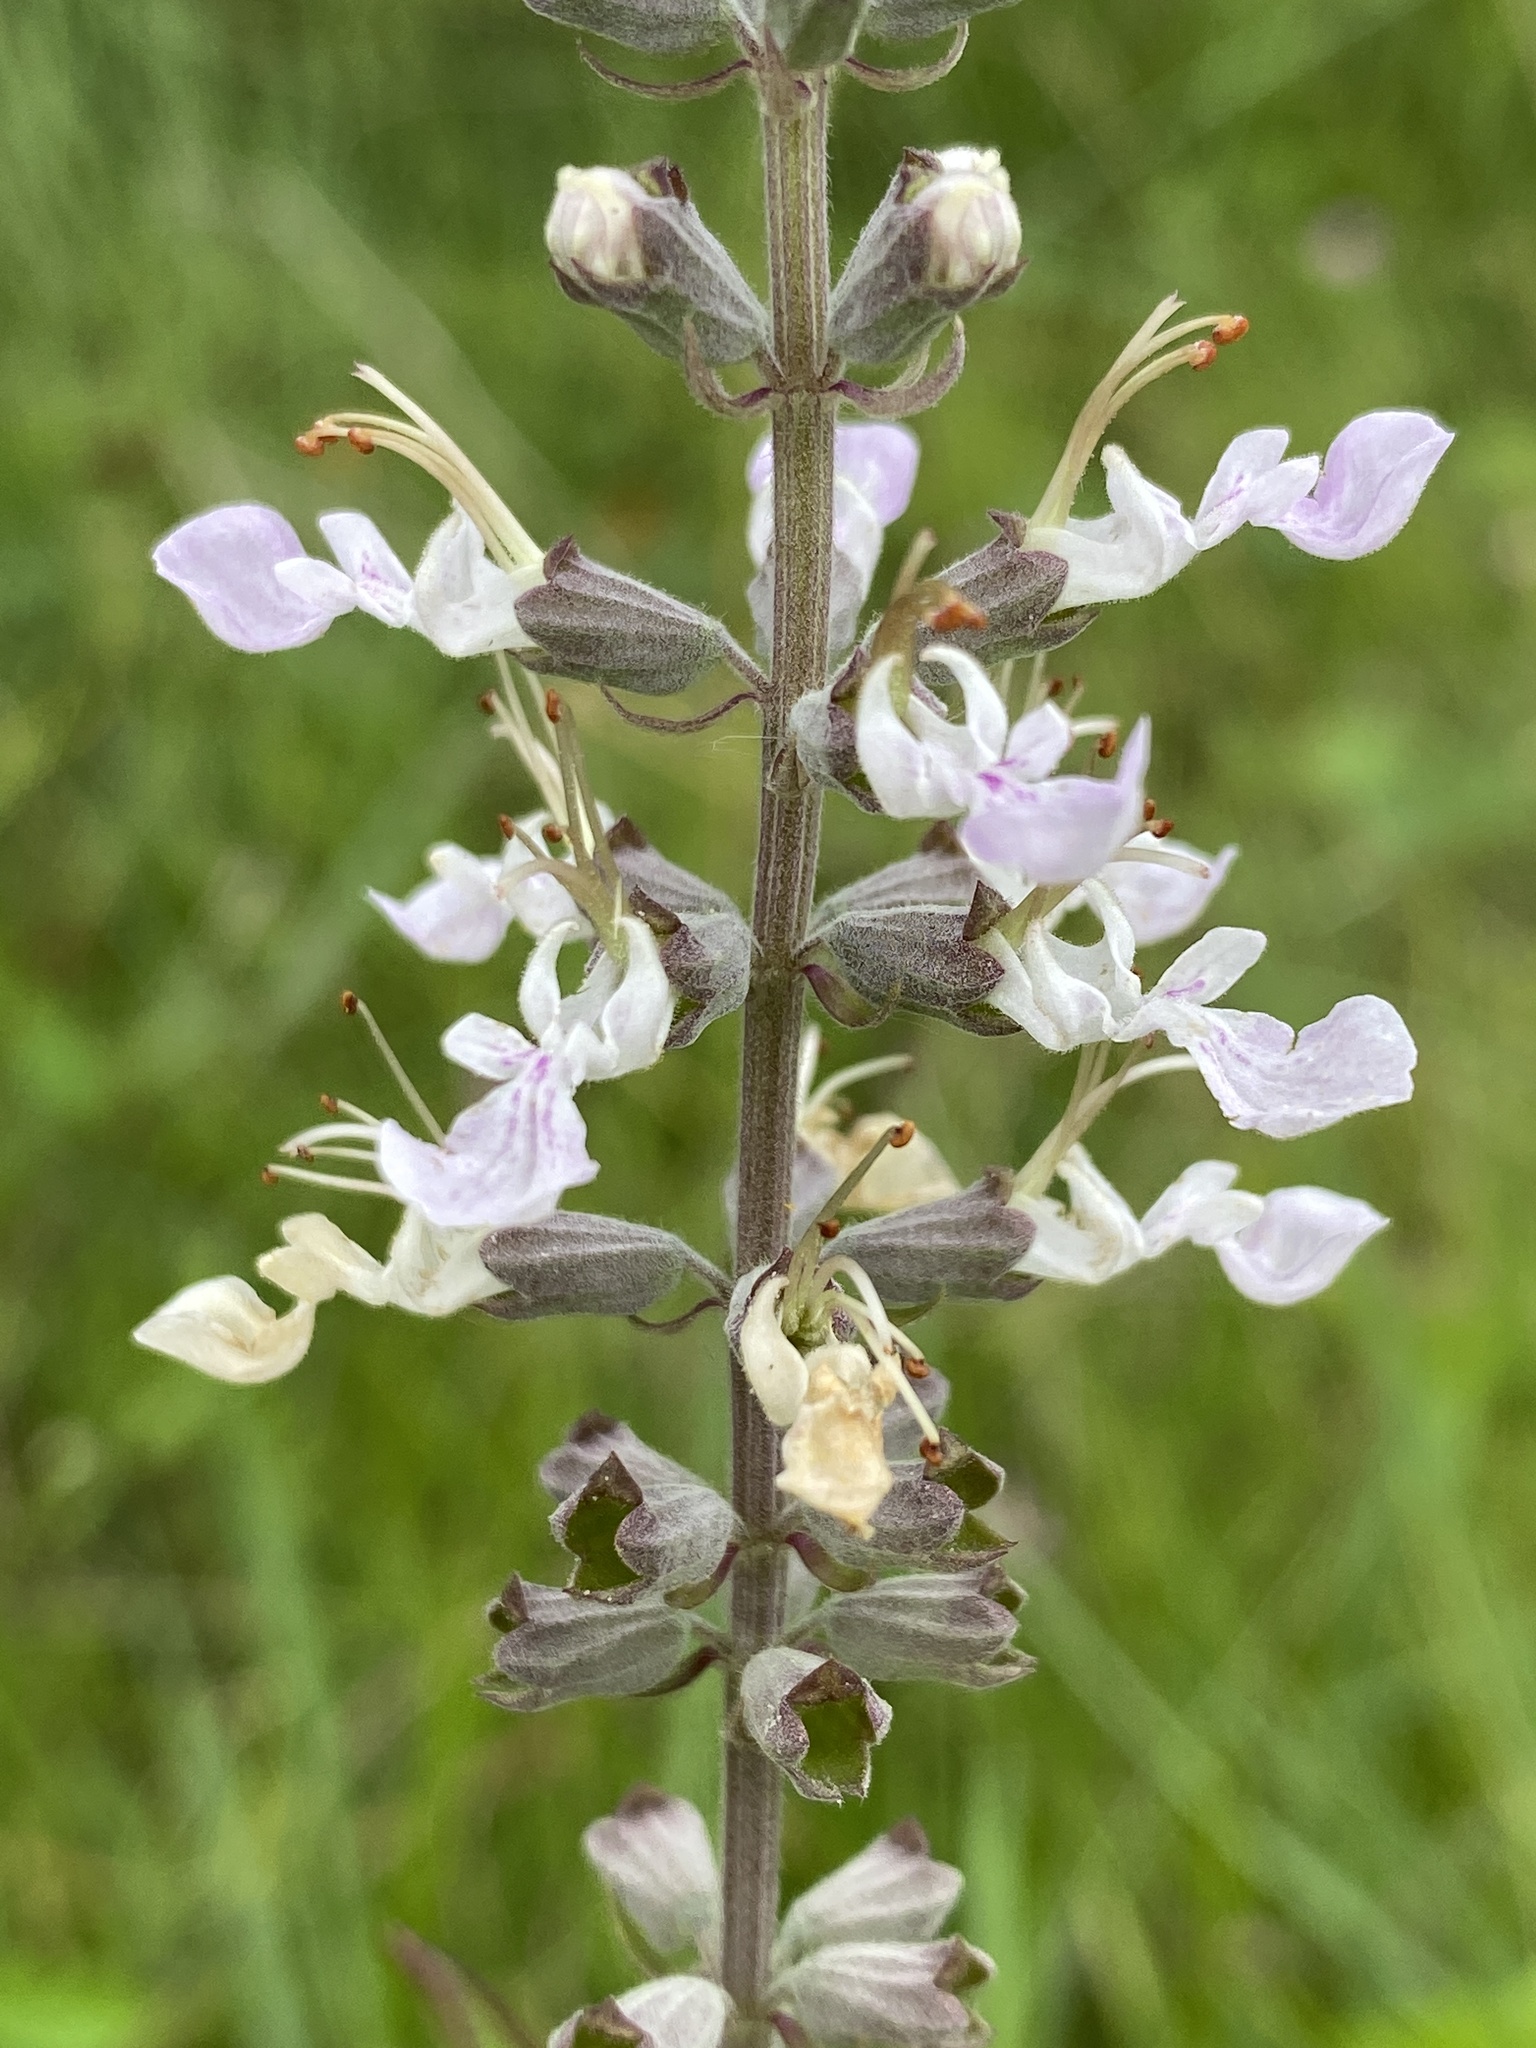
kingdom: Plantae
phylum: Tracheophyta
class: Magnoliopsida
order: Lamiales
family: Lamiaceae
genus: Teucrium
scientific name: Teucrium canadense
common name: American germander
